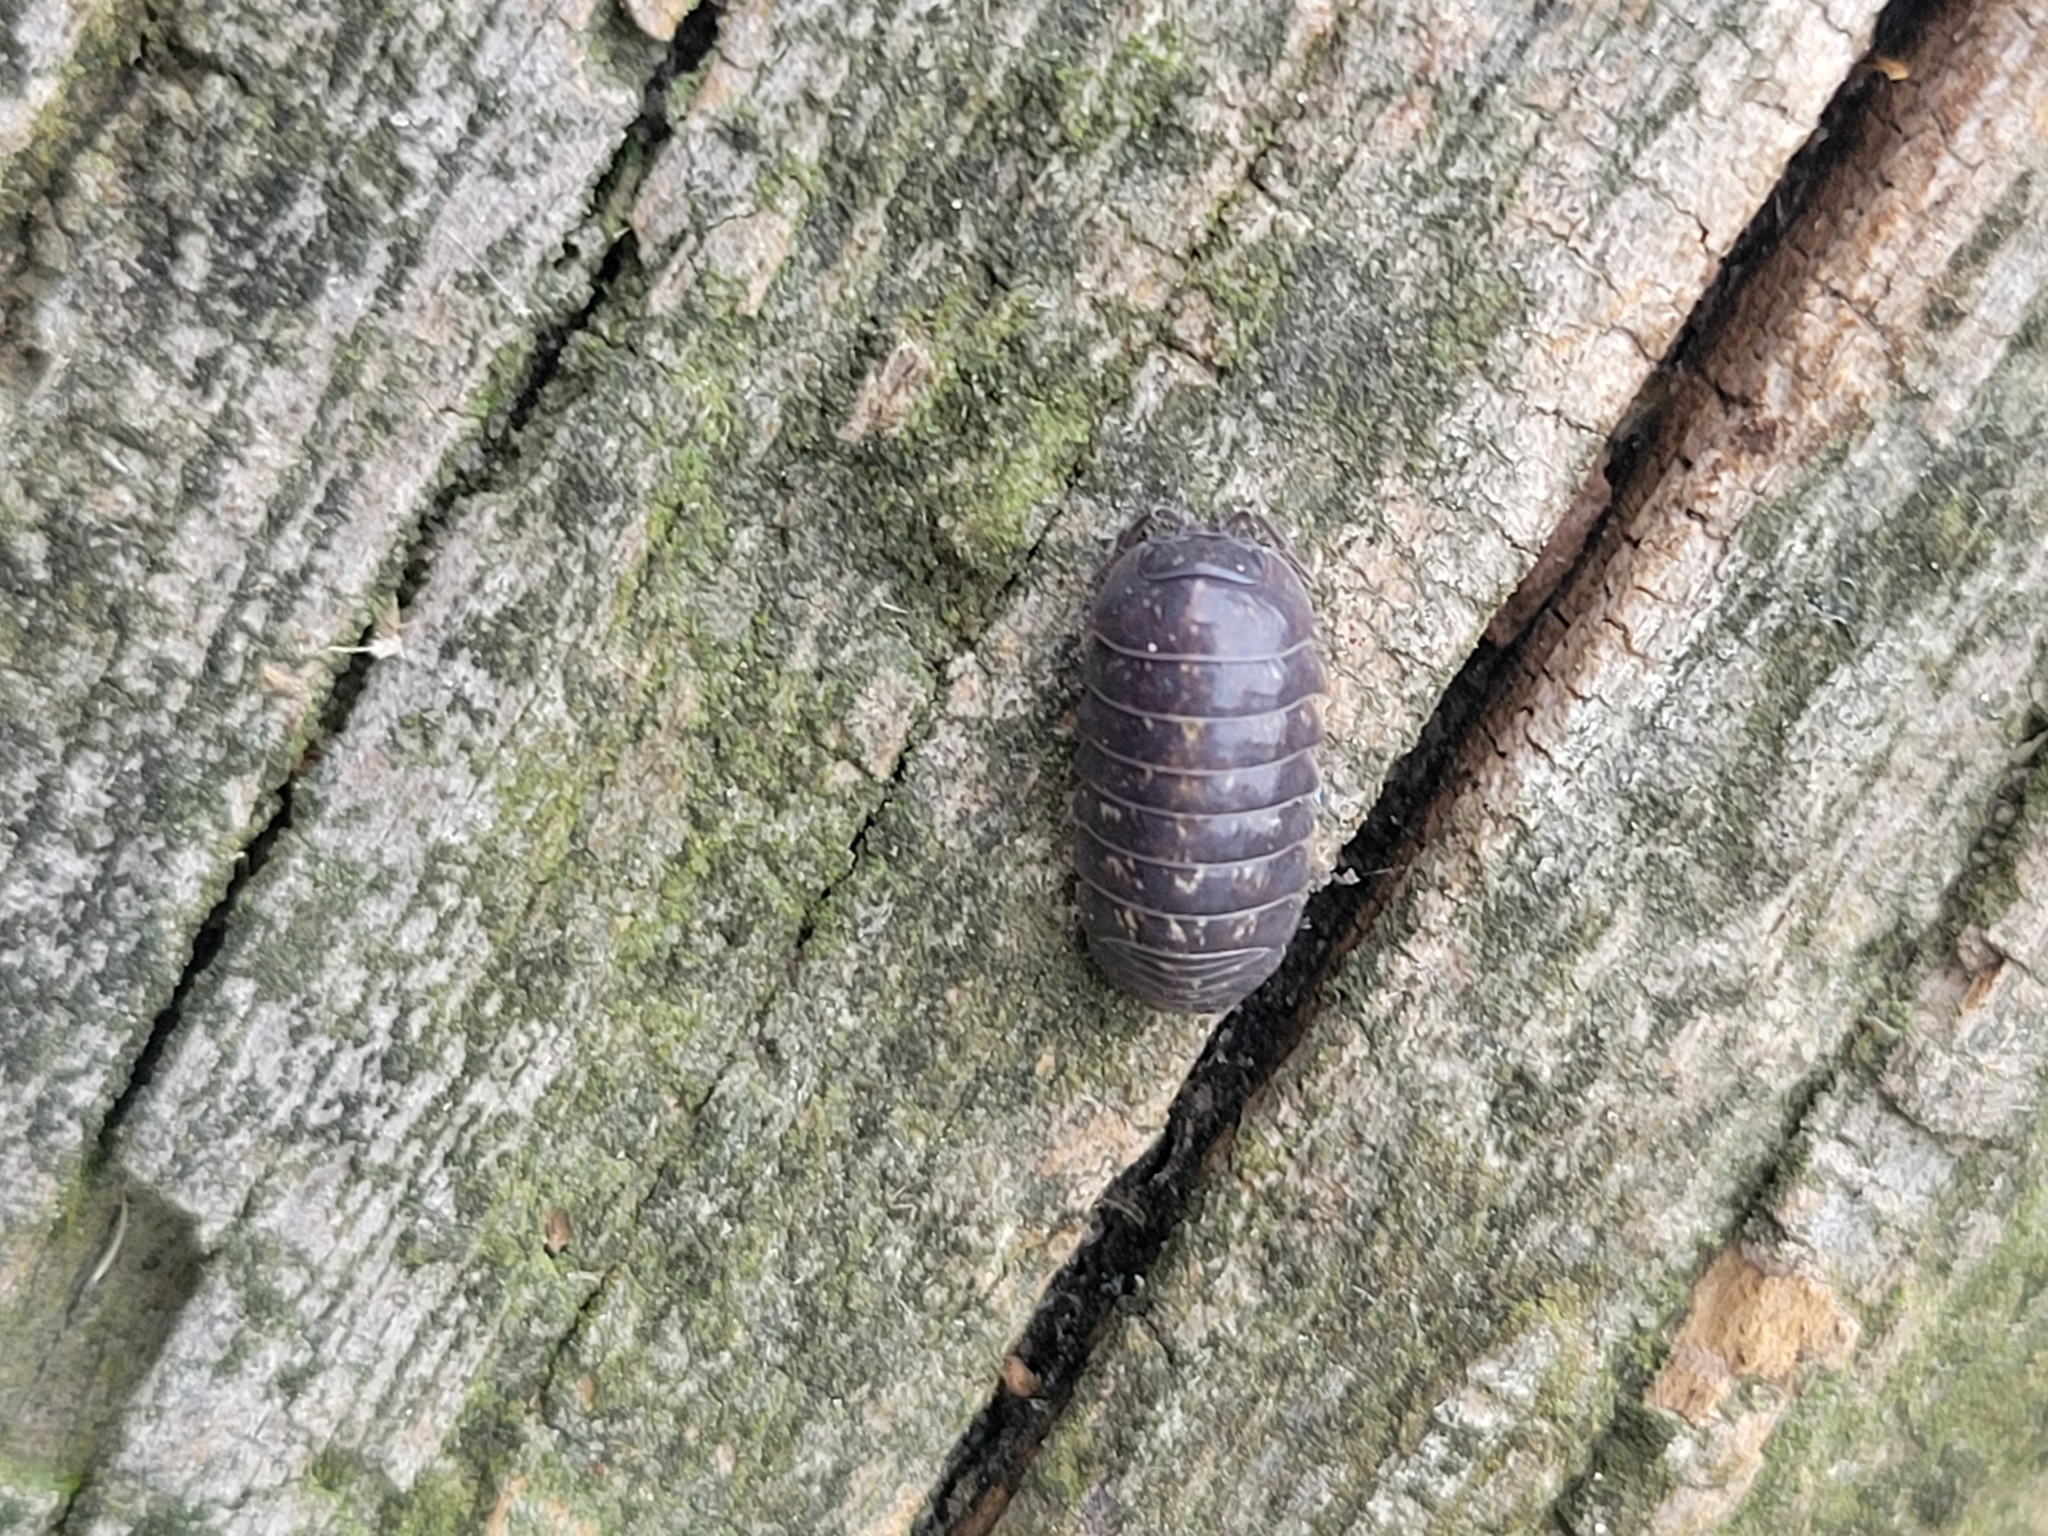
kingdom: Animalia
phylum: Arthropoda
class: Malacostraca
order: Isopoda
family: Armadillidiidae
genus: Armadillidium
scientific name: Armadillidium vulgare
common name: Common pill woodlouse
